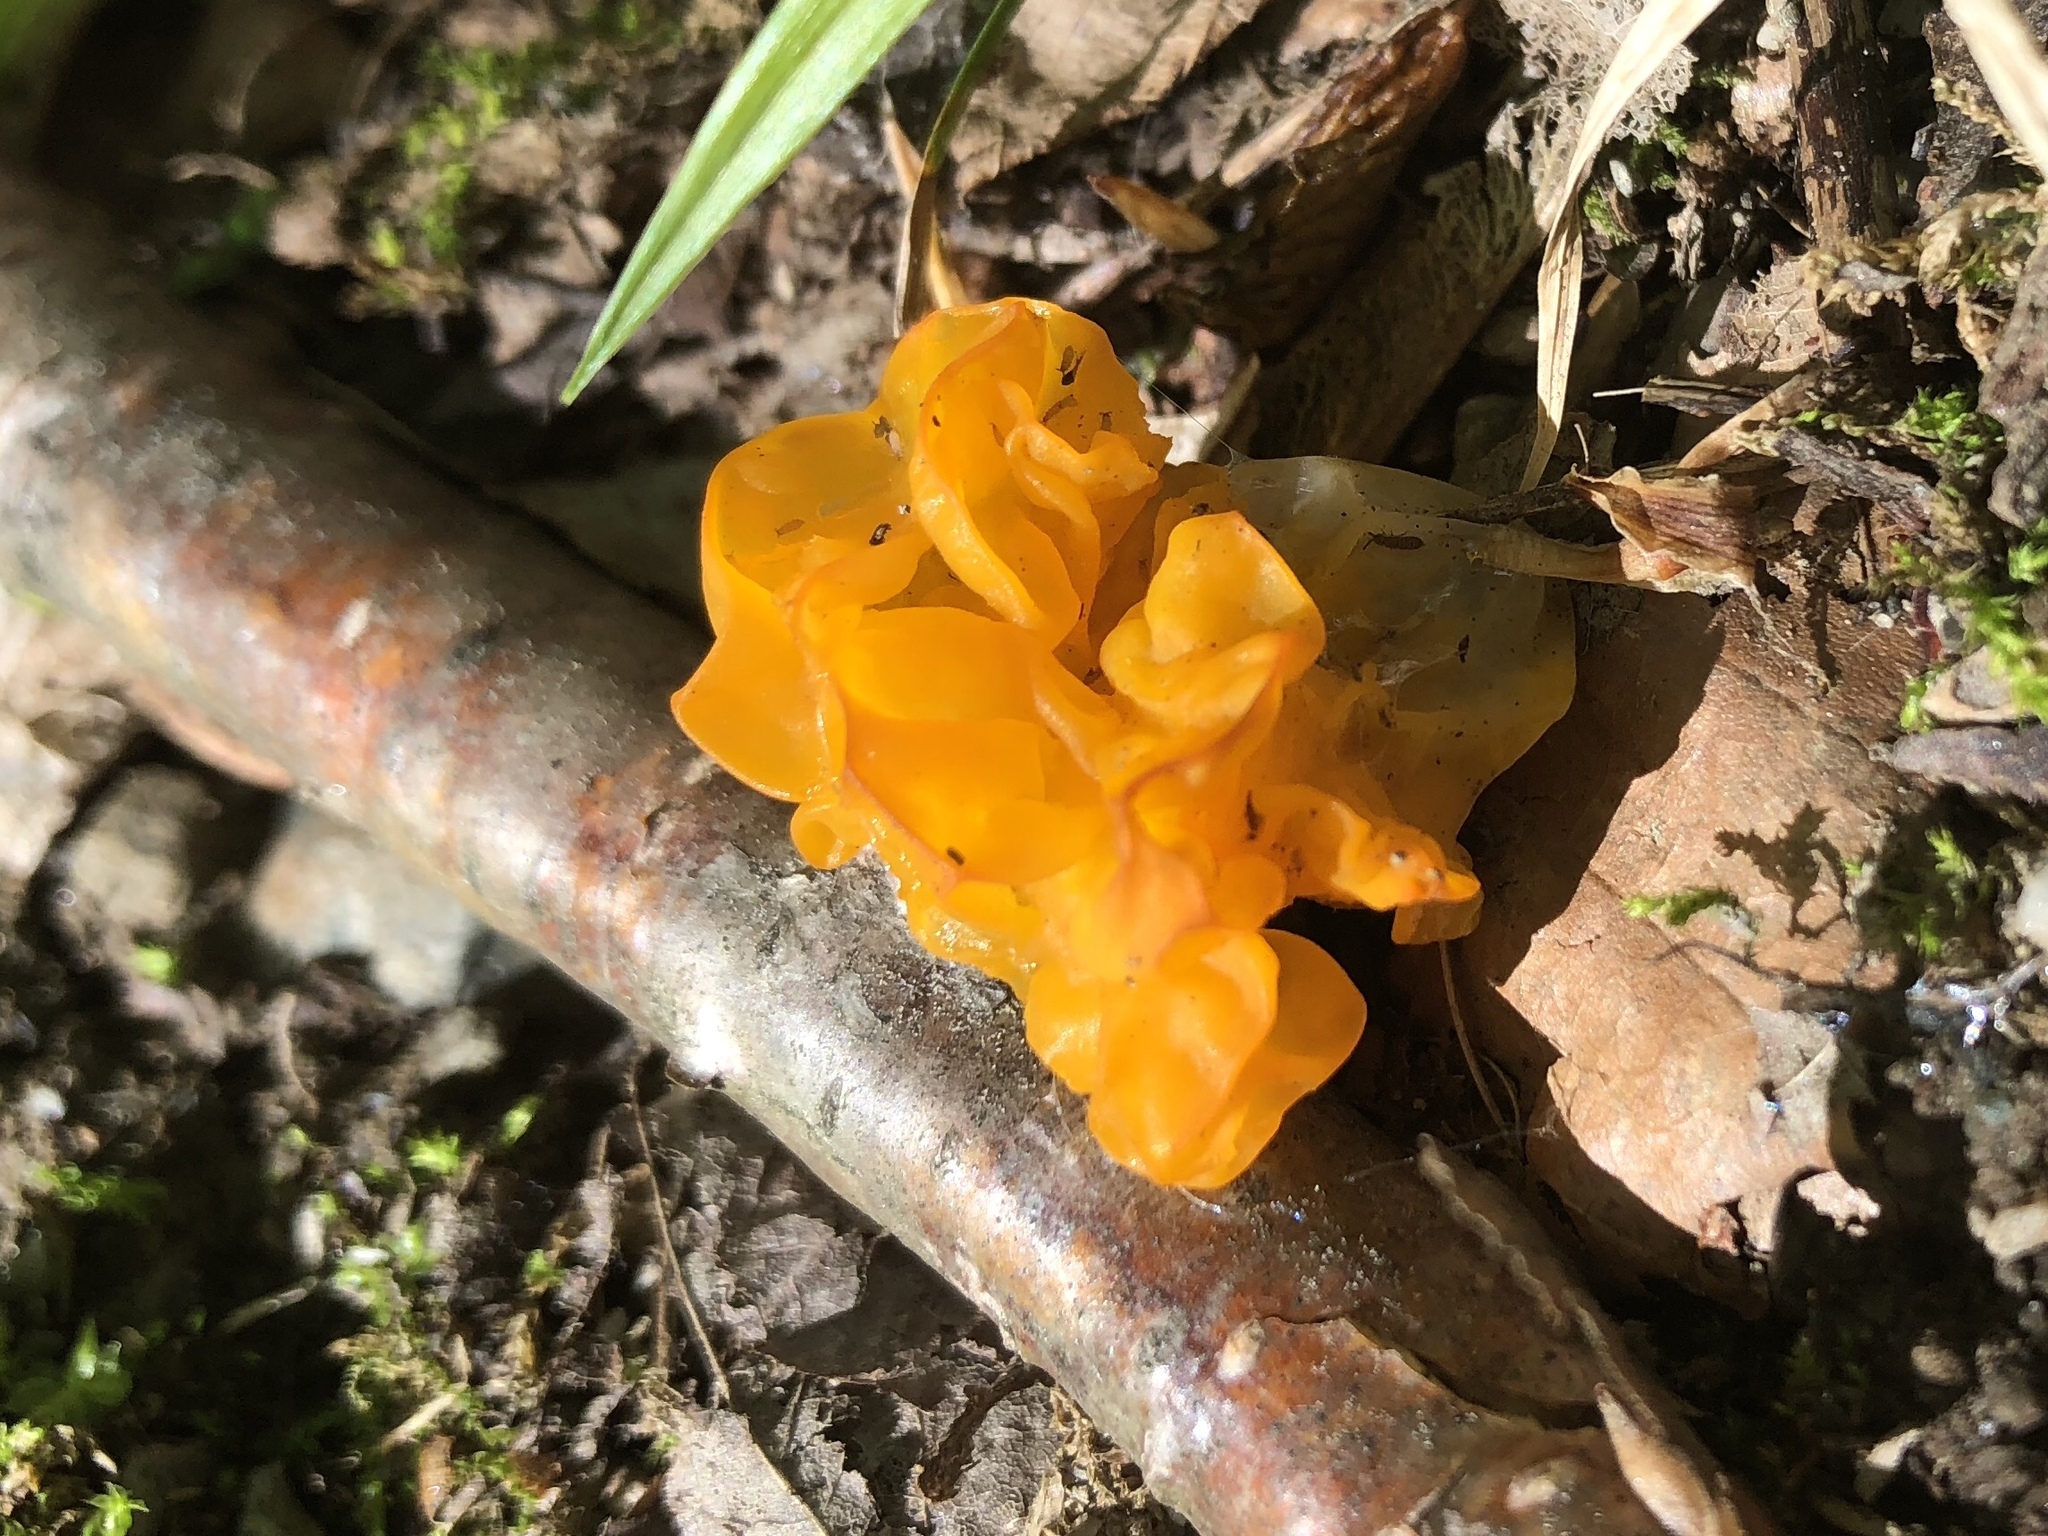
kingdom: Fungi
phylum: Basidiomycota
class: Tremellomycetes
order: Tremellales
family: Tremellaceae
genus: Tremella
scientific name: Tremella mesenterica
